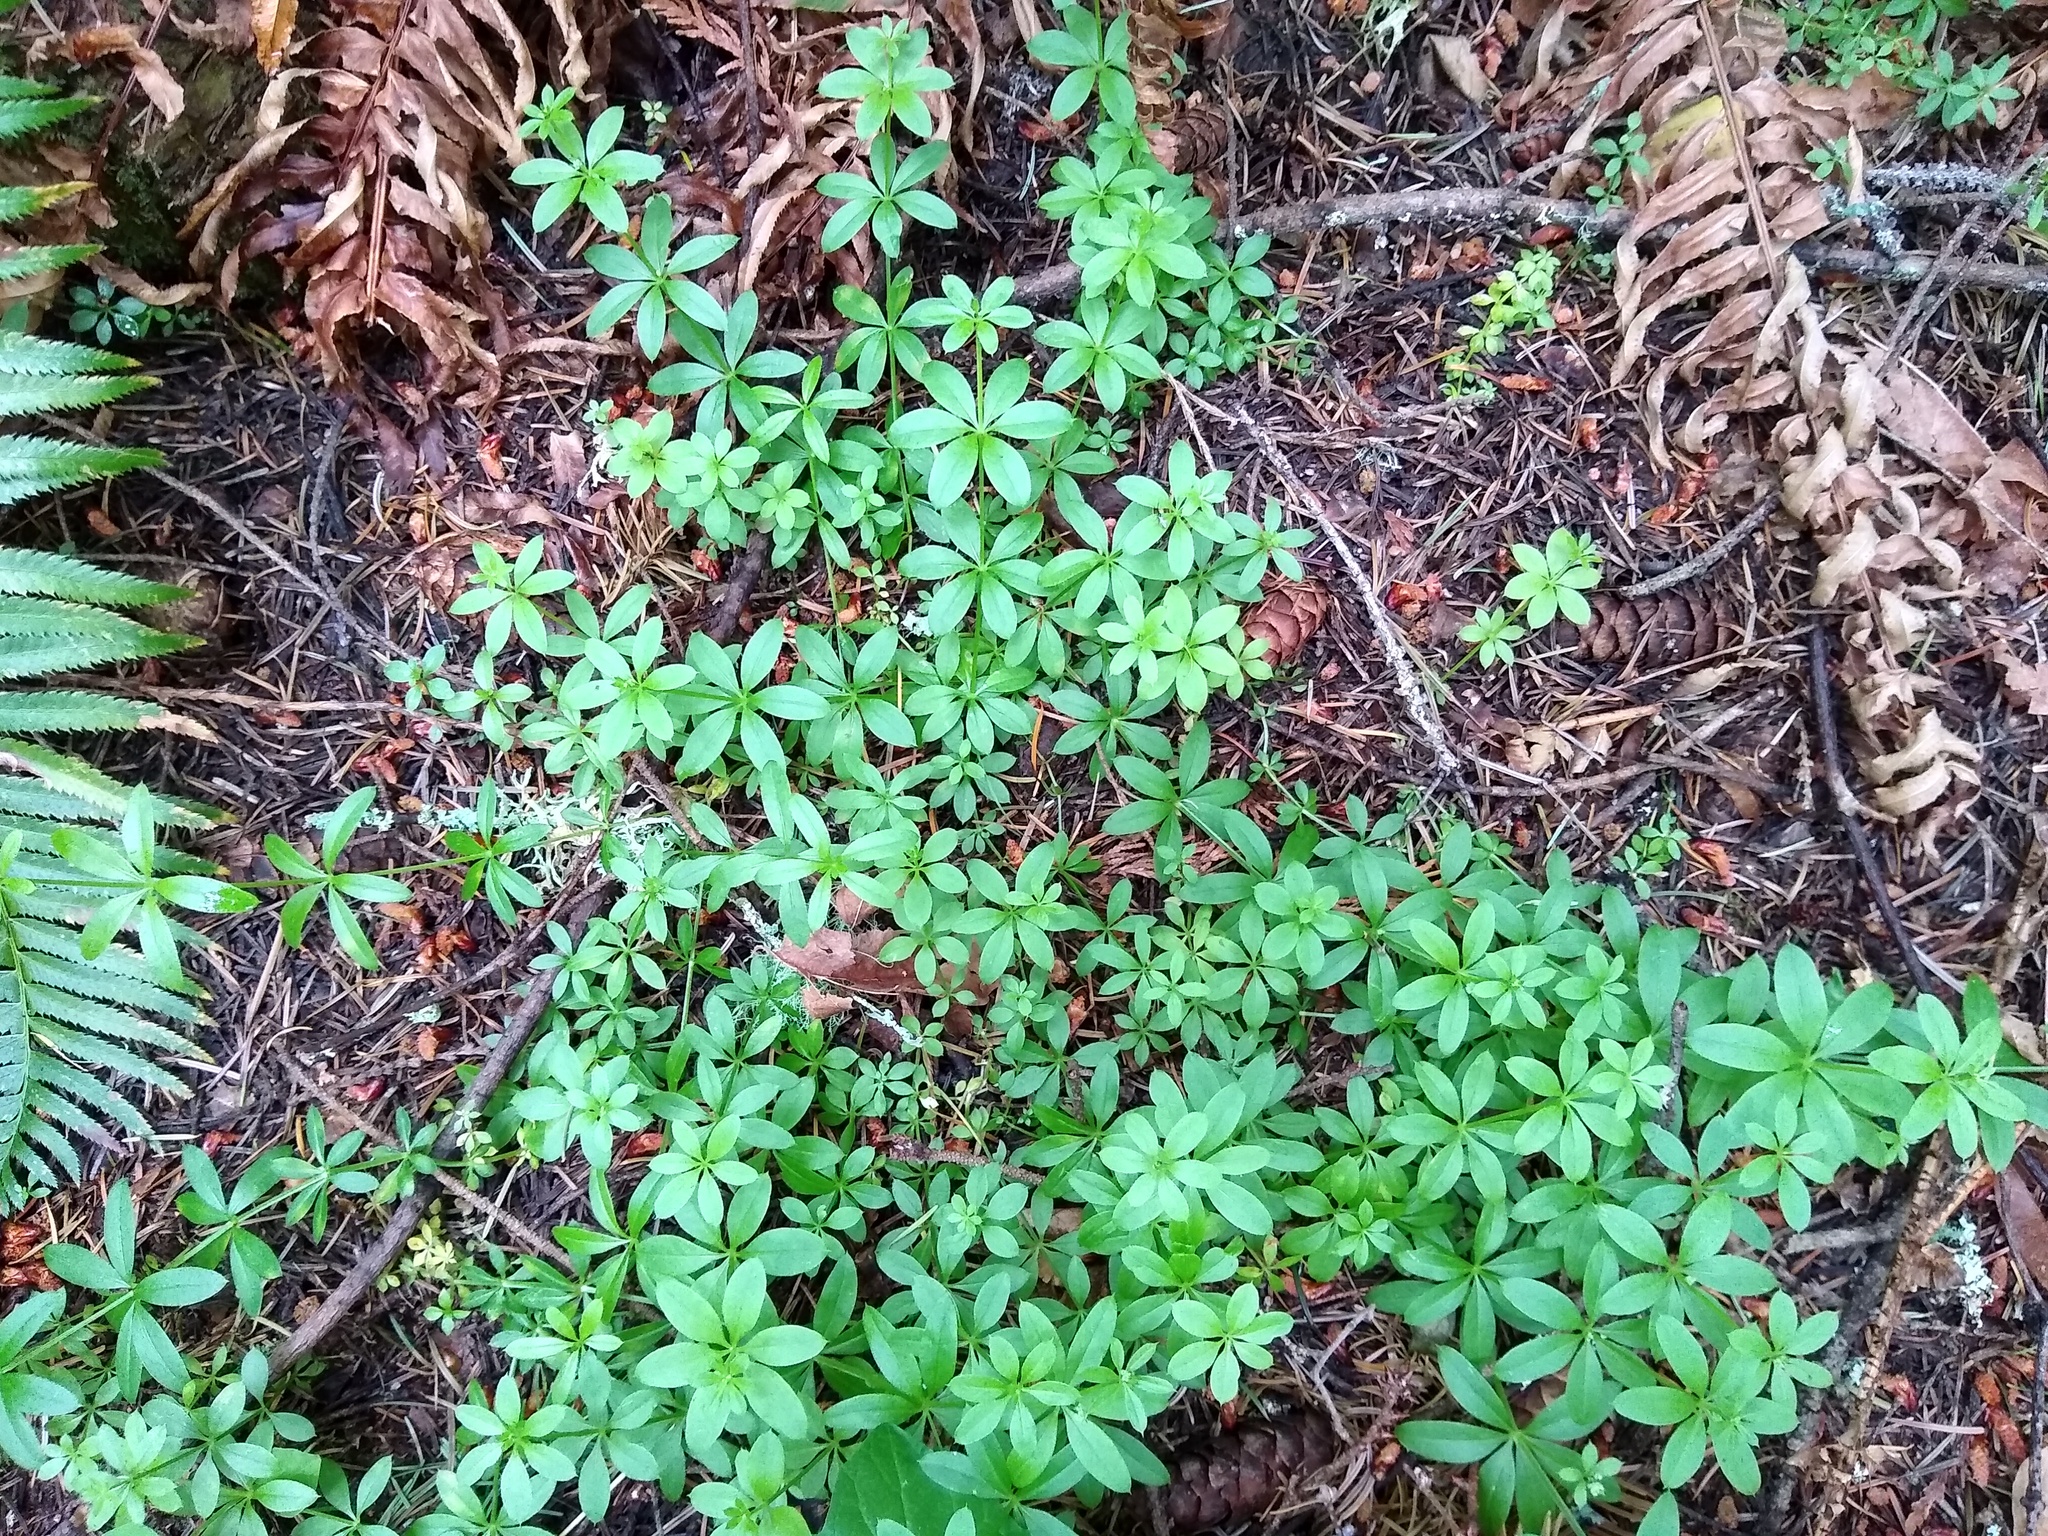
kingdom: Plantae
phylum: Tracheophyta
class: Magnoliopsida
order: Gentianales
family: Rubiaceae
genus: Galium
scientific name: Galium triflorum
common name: Fragrant bedstraw
